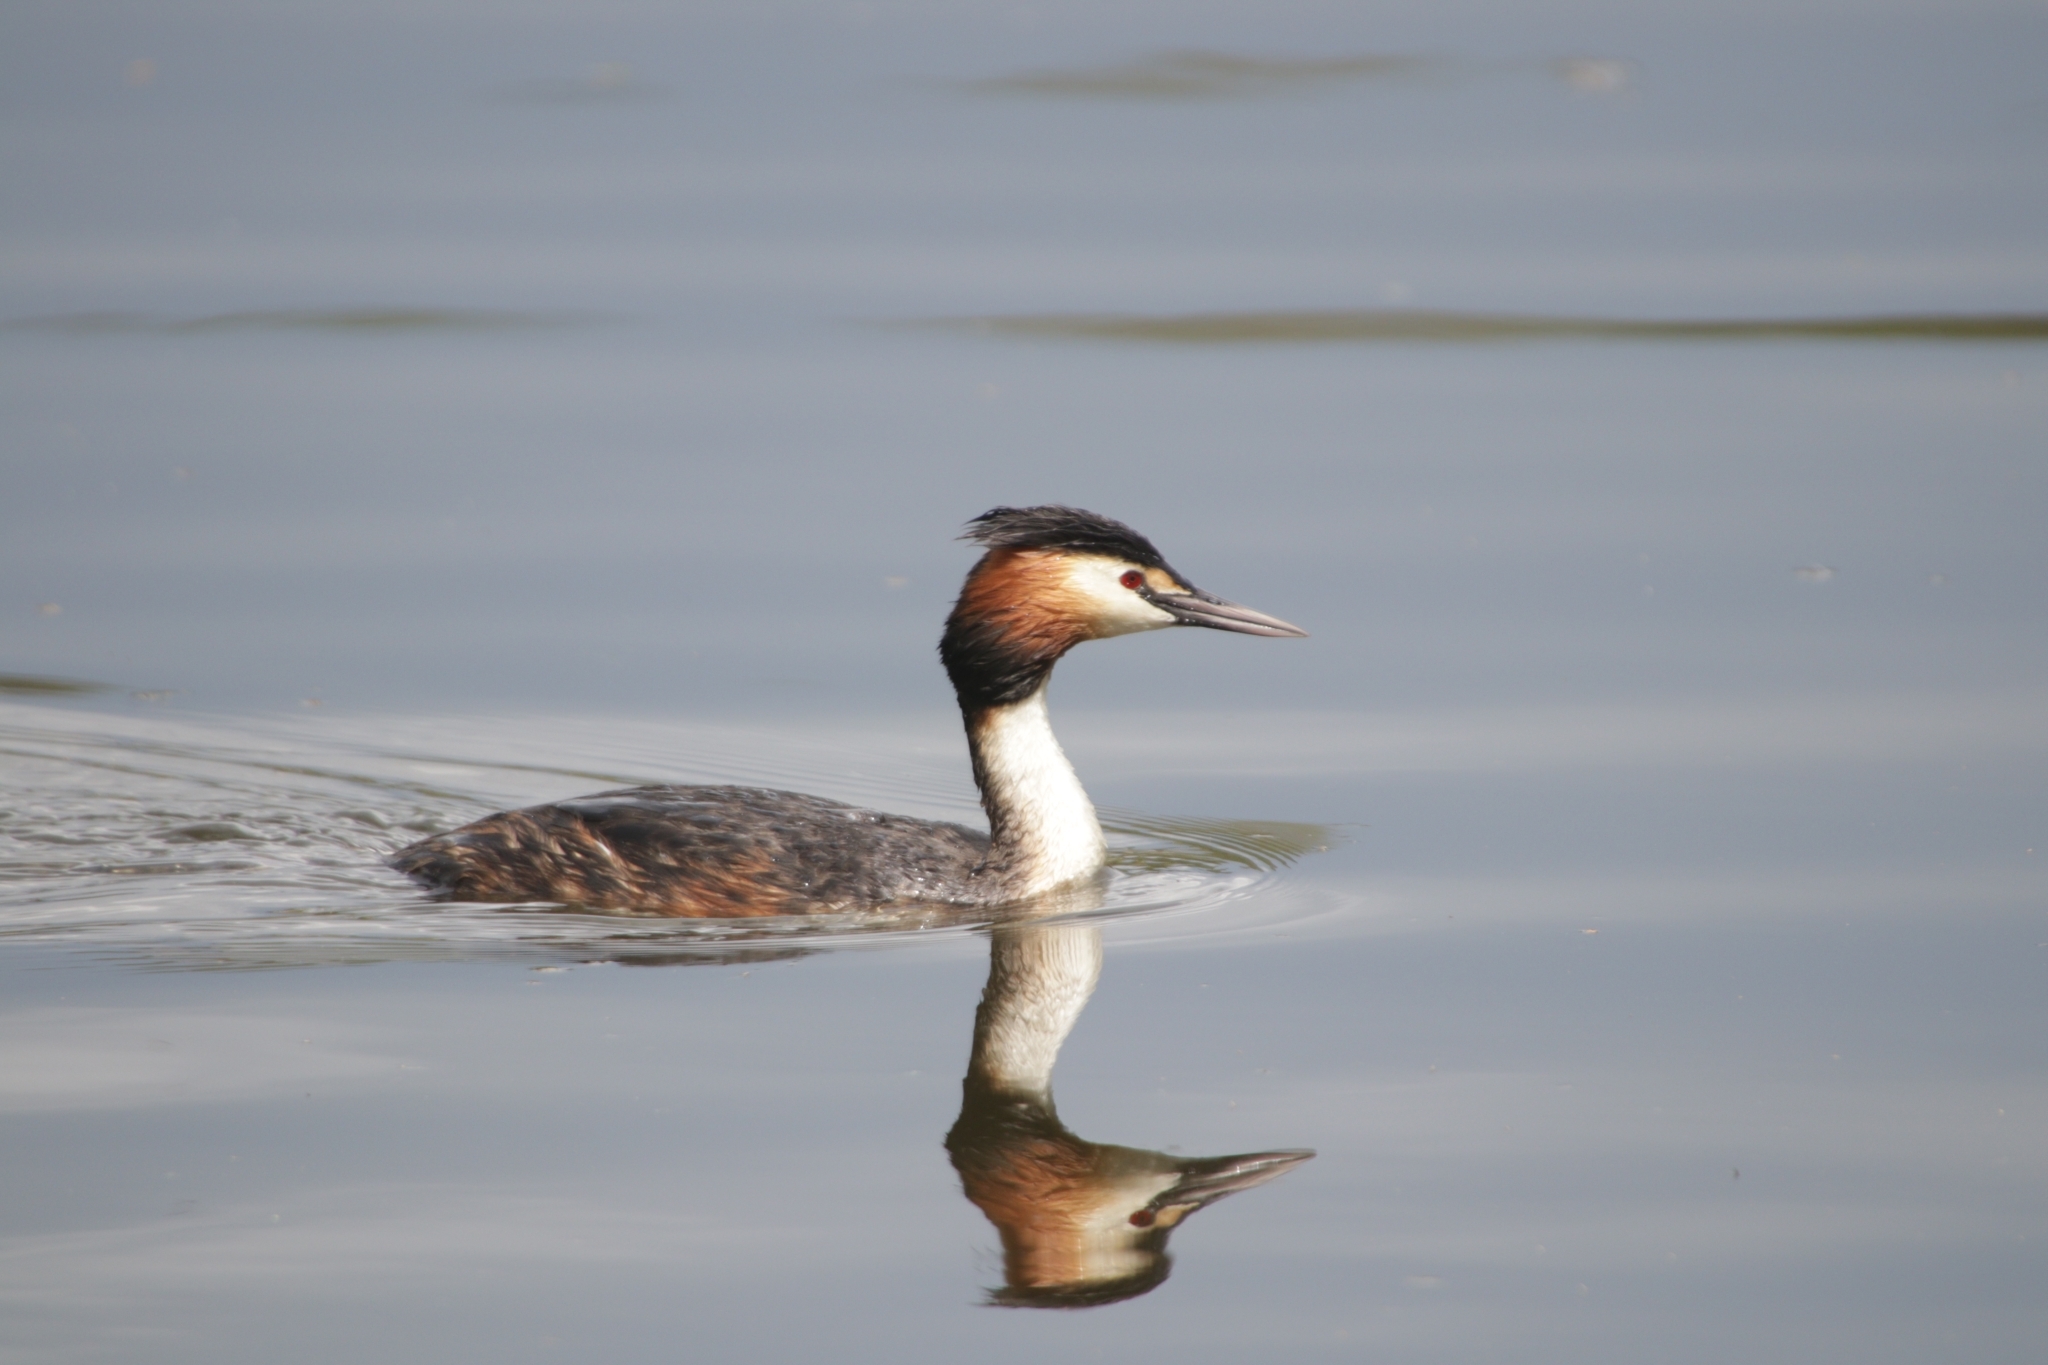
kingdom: Animalia
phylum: Chordata
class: Aves
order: Podicipediformes
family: Podicipedidae
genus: Podiceps
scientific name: Podiceps cristatus
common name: Great crested grebe
